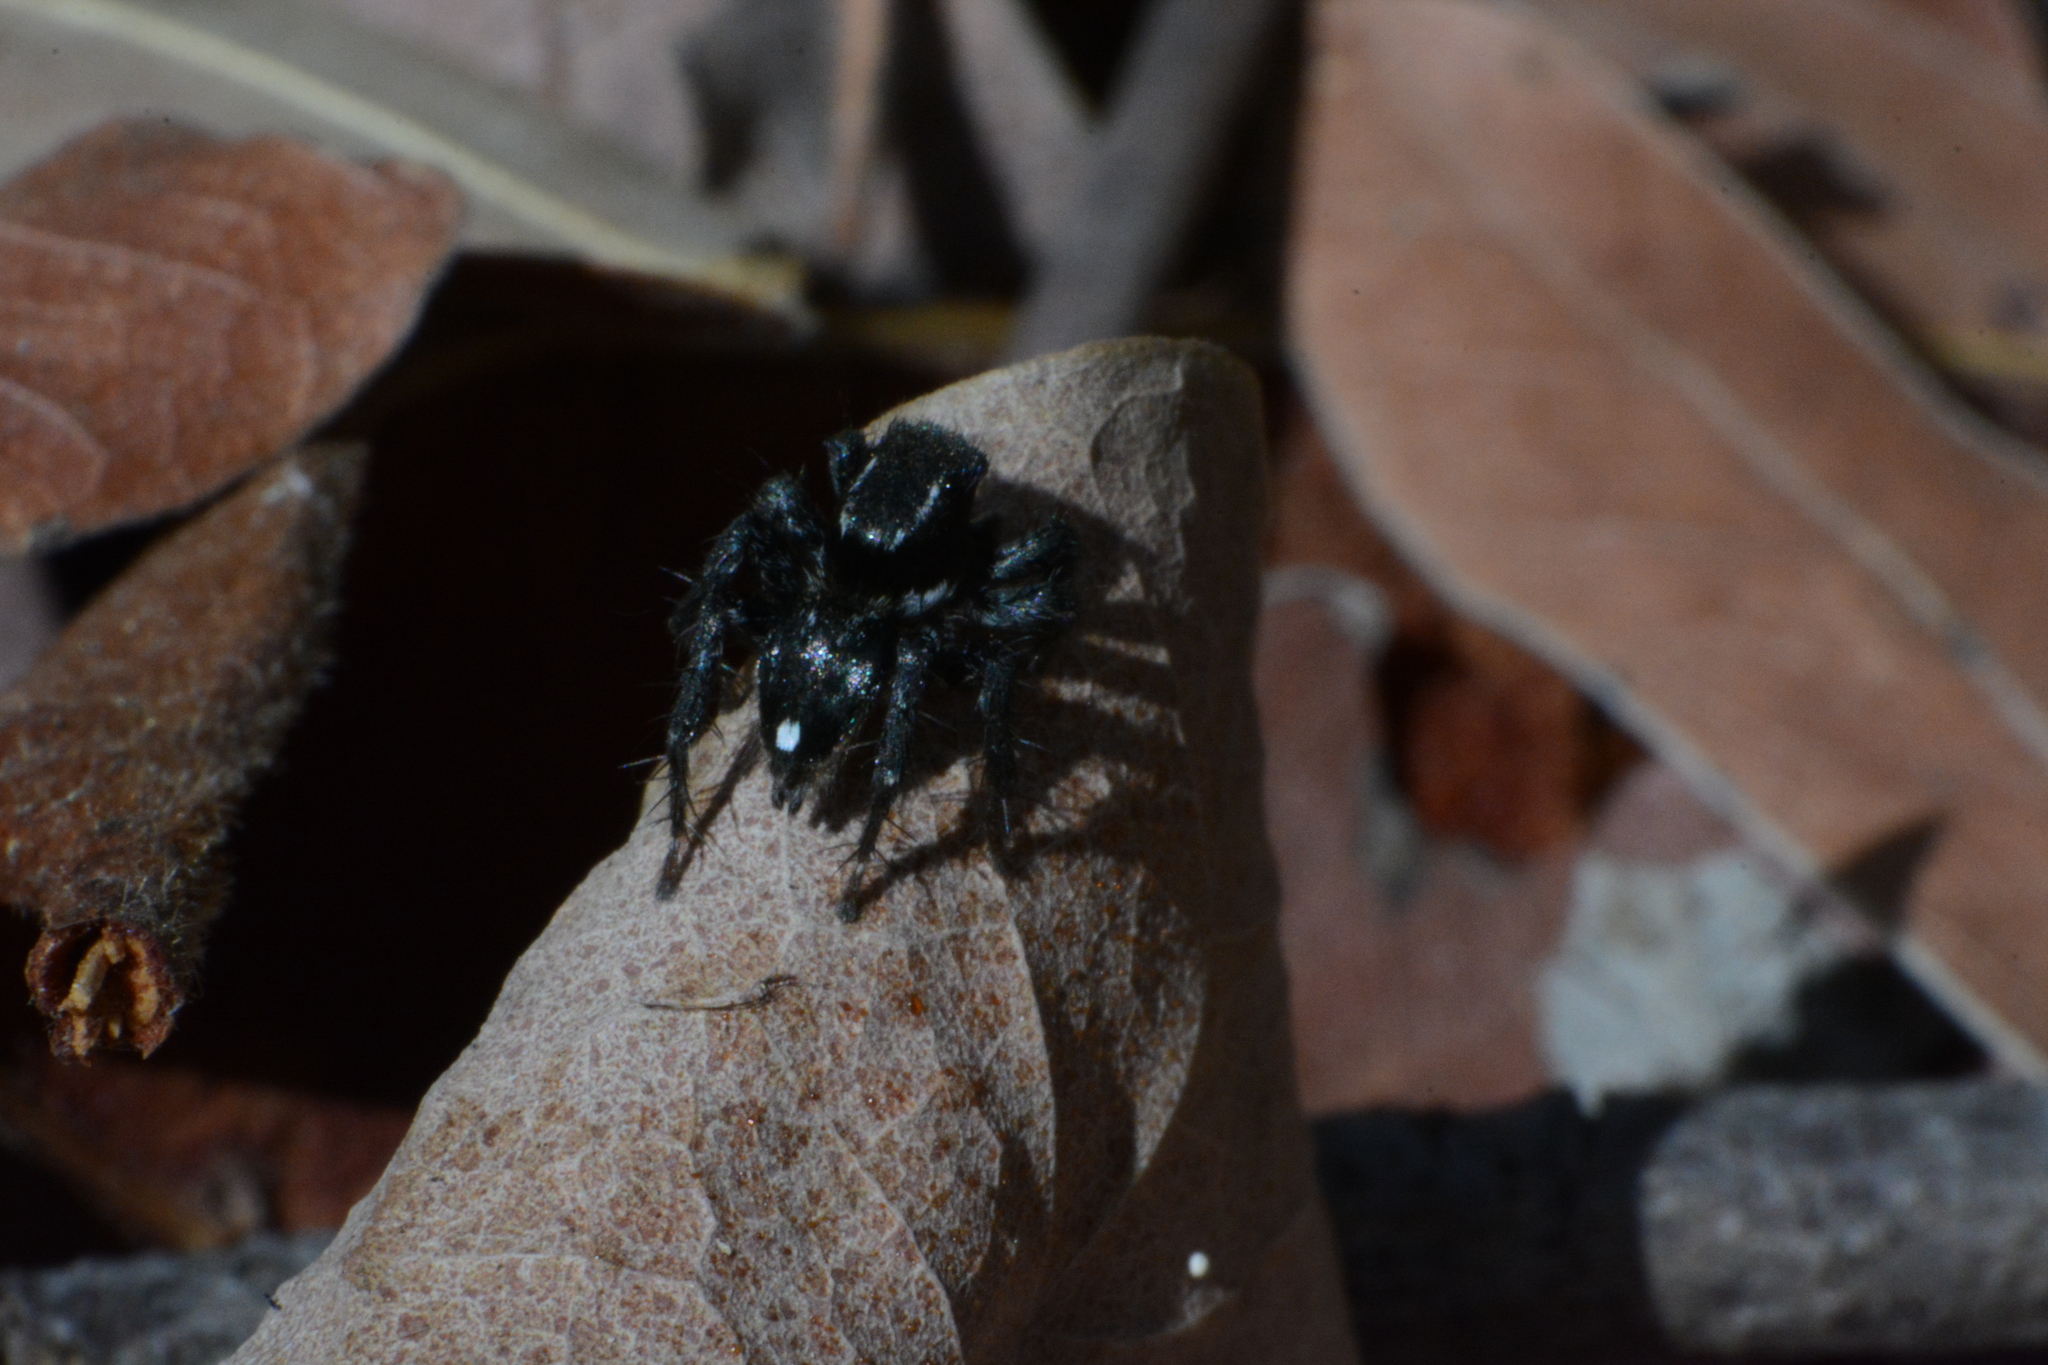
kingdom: Animalia
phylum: Arthropoda
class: Arachnida
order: Araneae
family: Salticidae
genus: Stenaelurillus
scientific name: Stenaelurillus guttiger
